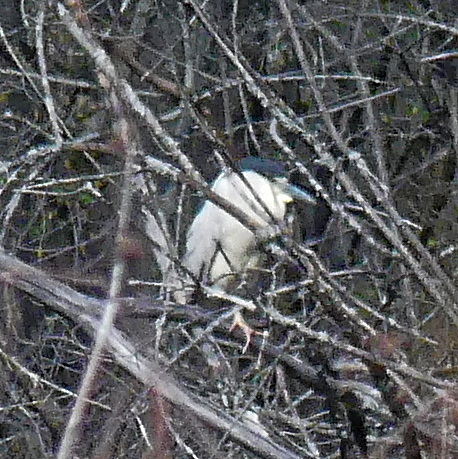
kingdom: Animalia
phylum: Chordata
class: Aves
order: Pelecaniformes
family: Ardeidae
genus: Nycticorax
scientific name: Nycticorax nycticorax
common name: Black-crowned night heron
